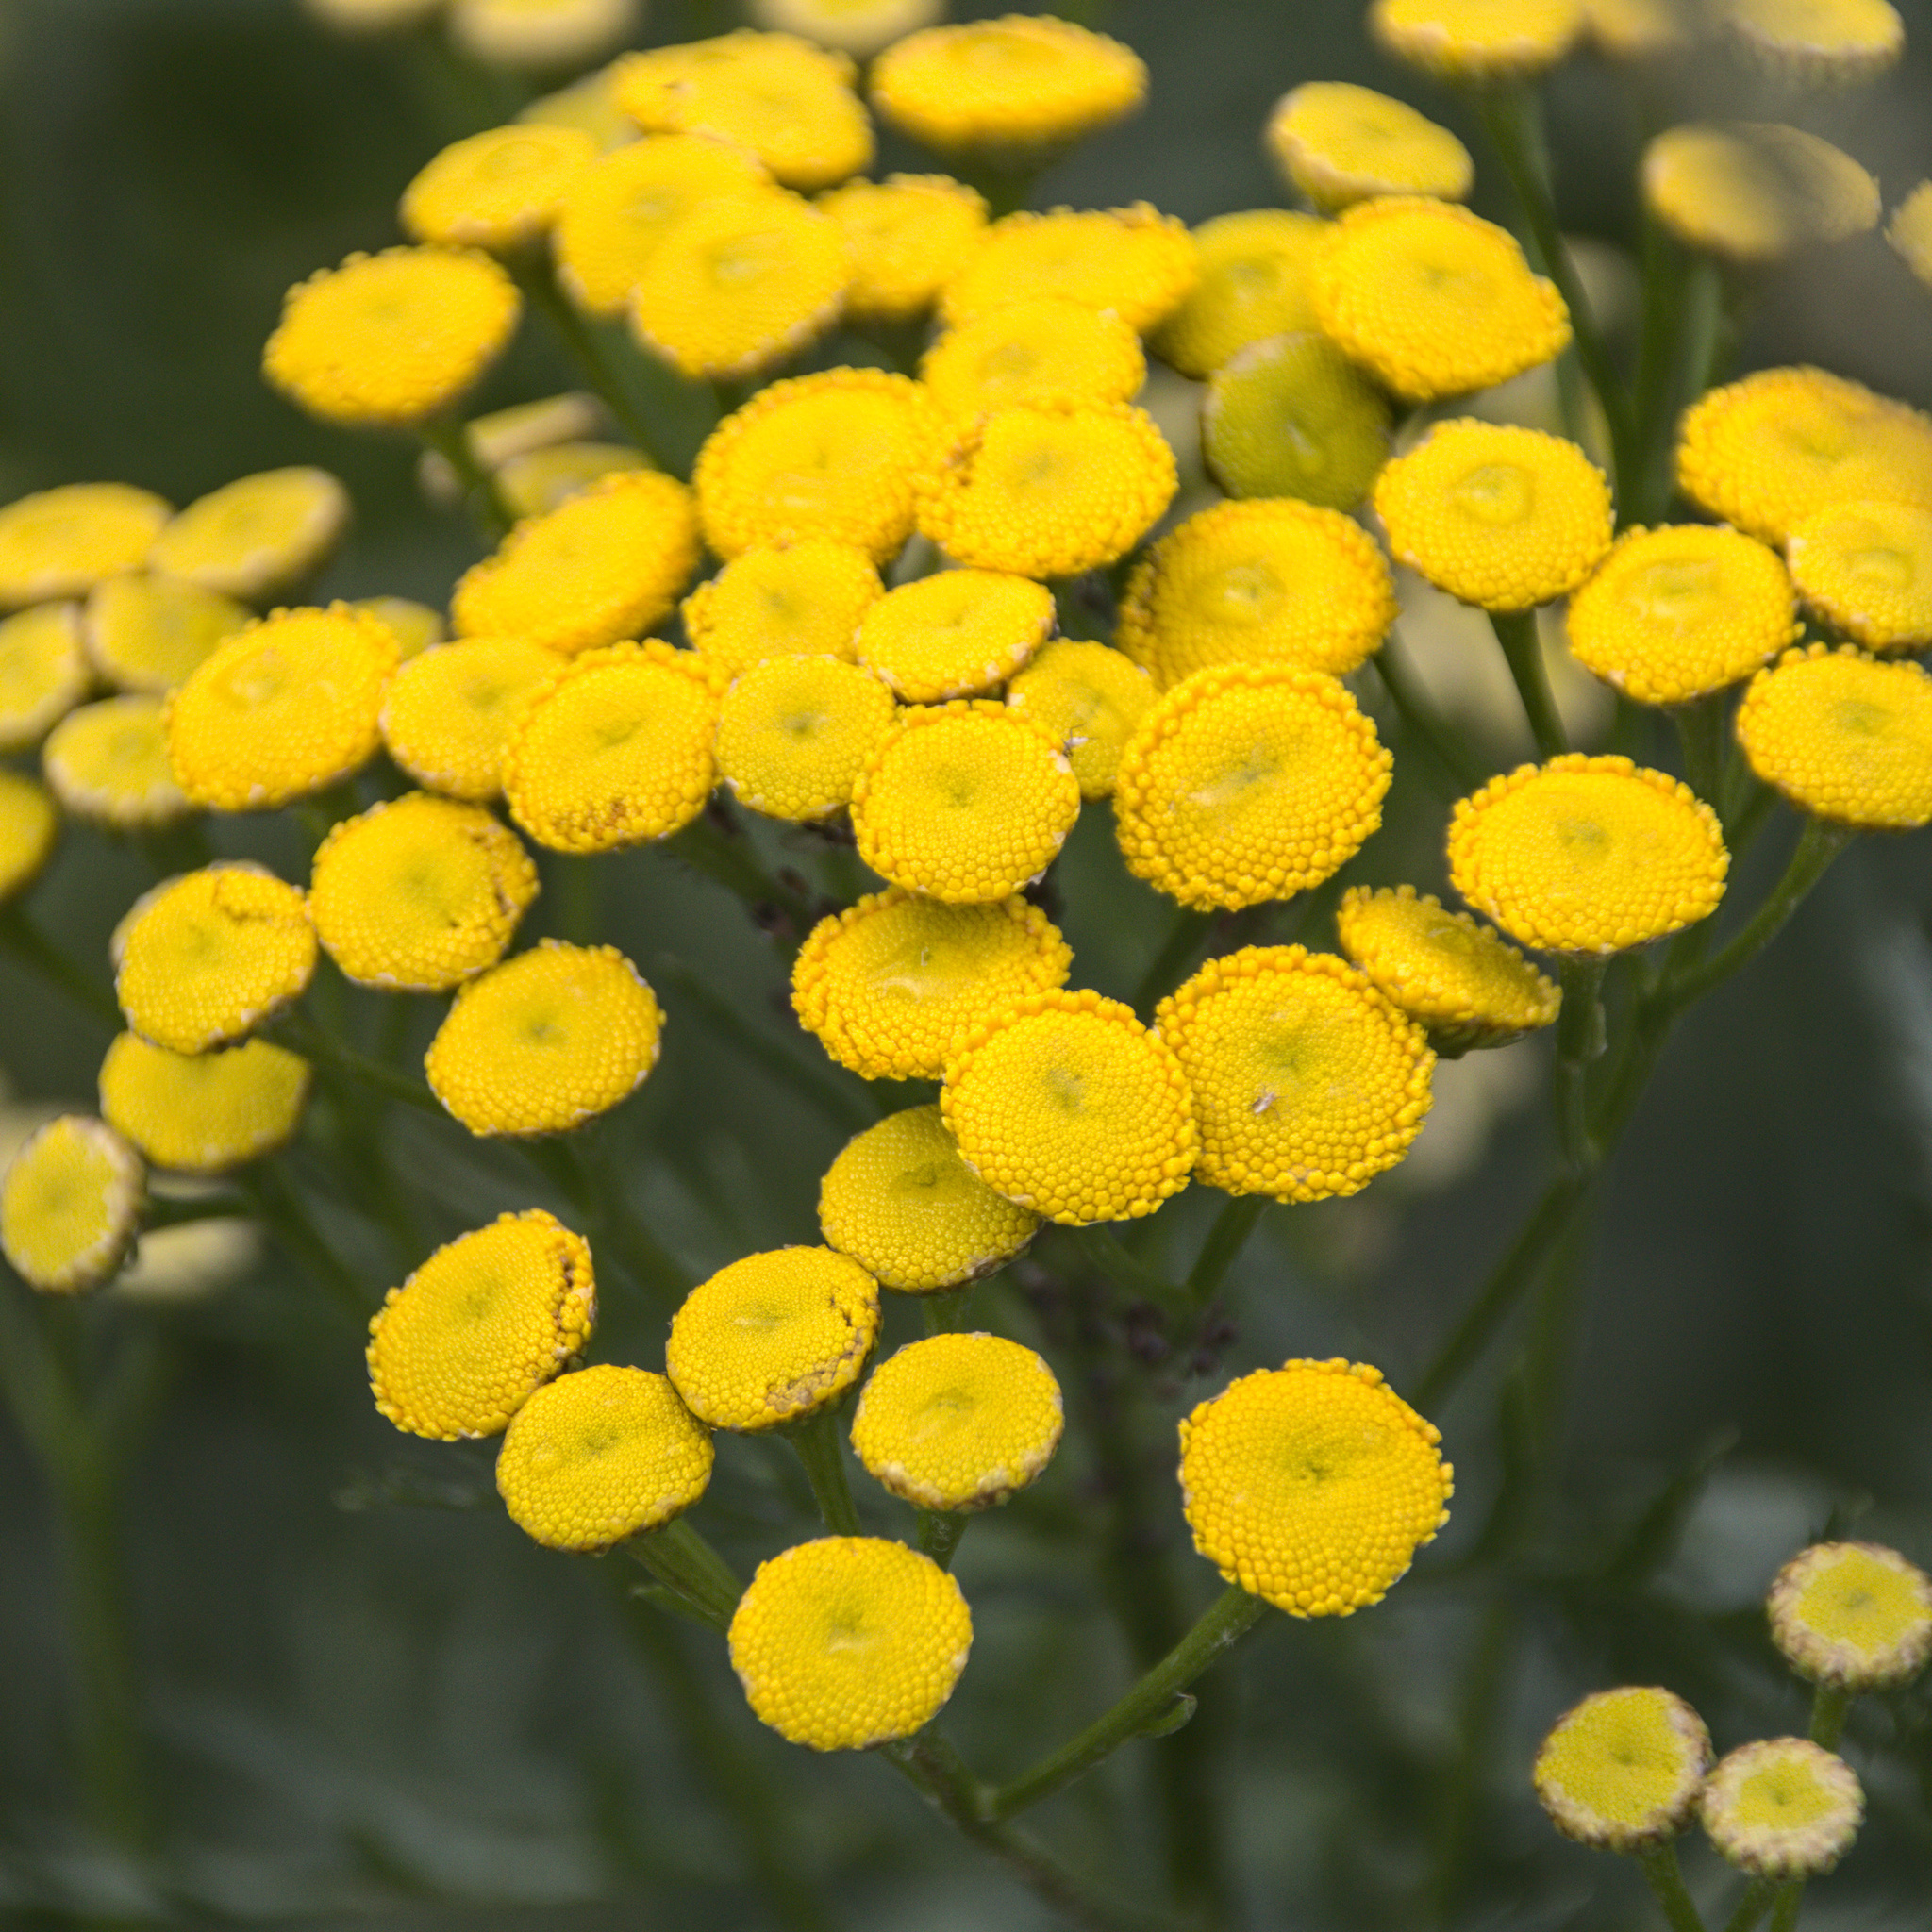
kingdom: Plantae
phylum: Tracheophyta
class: Magnoliopsida
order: Asterales
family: Asteraceae
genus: Tanacetum
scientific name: Tanacetum vulgare
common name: Common tansy
